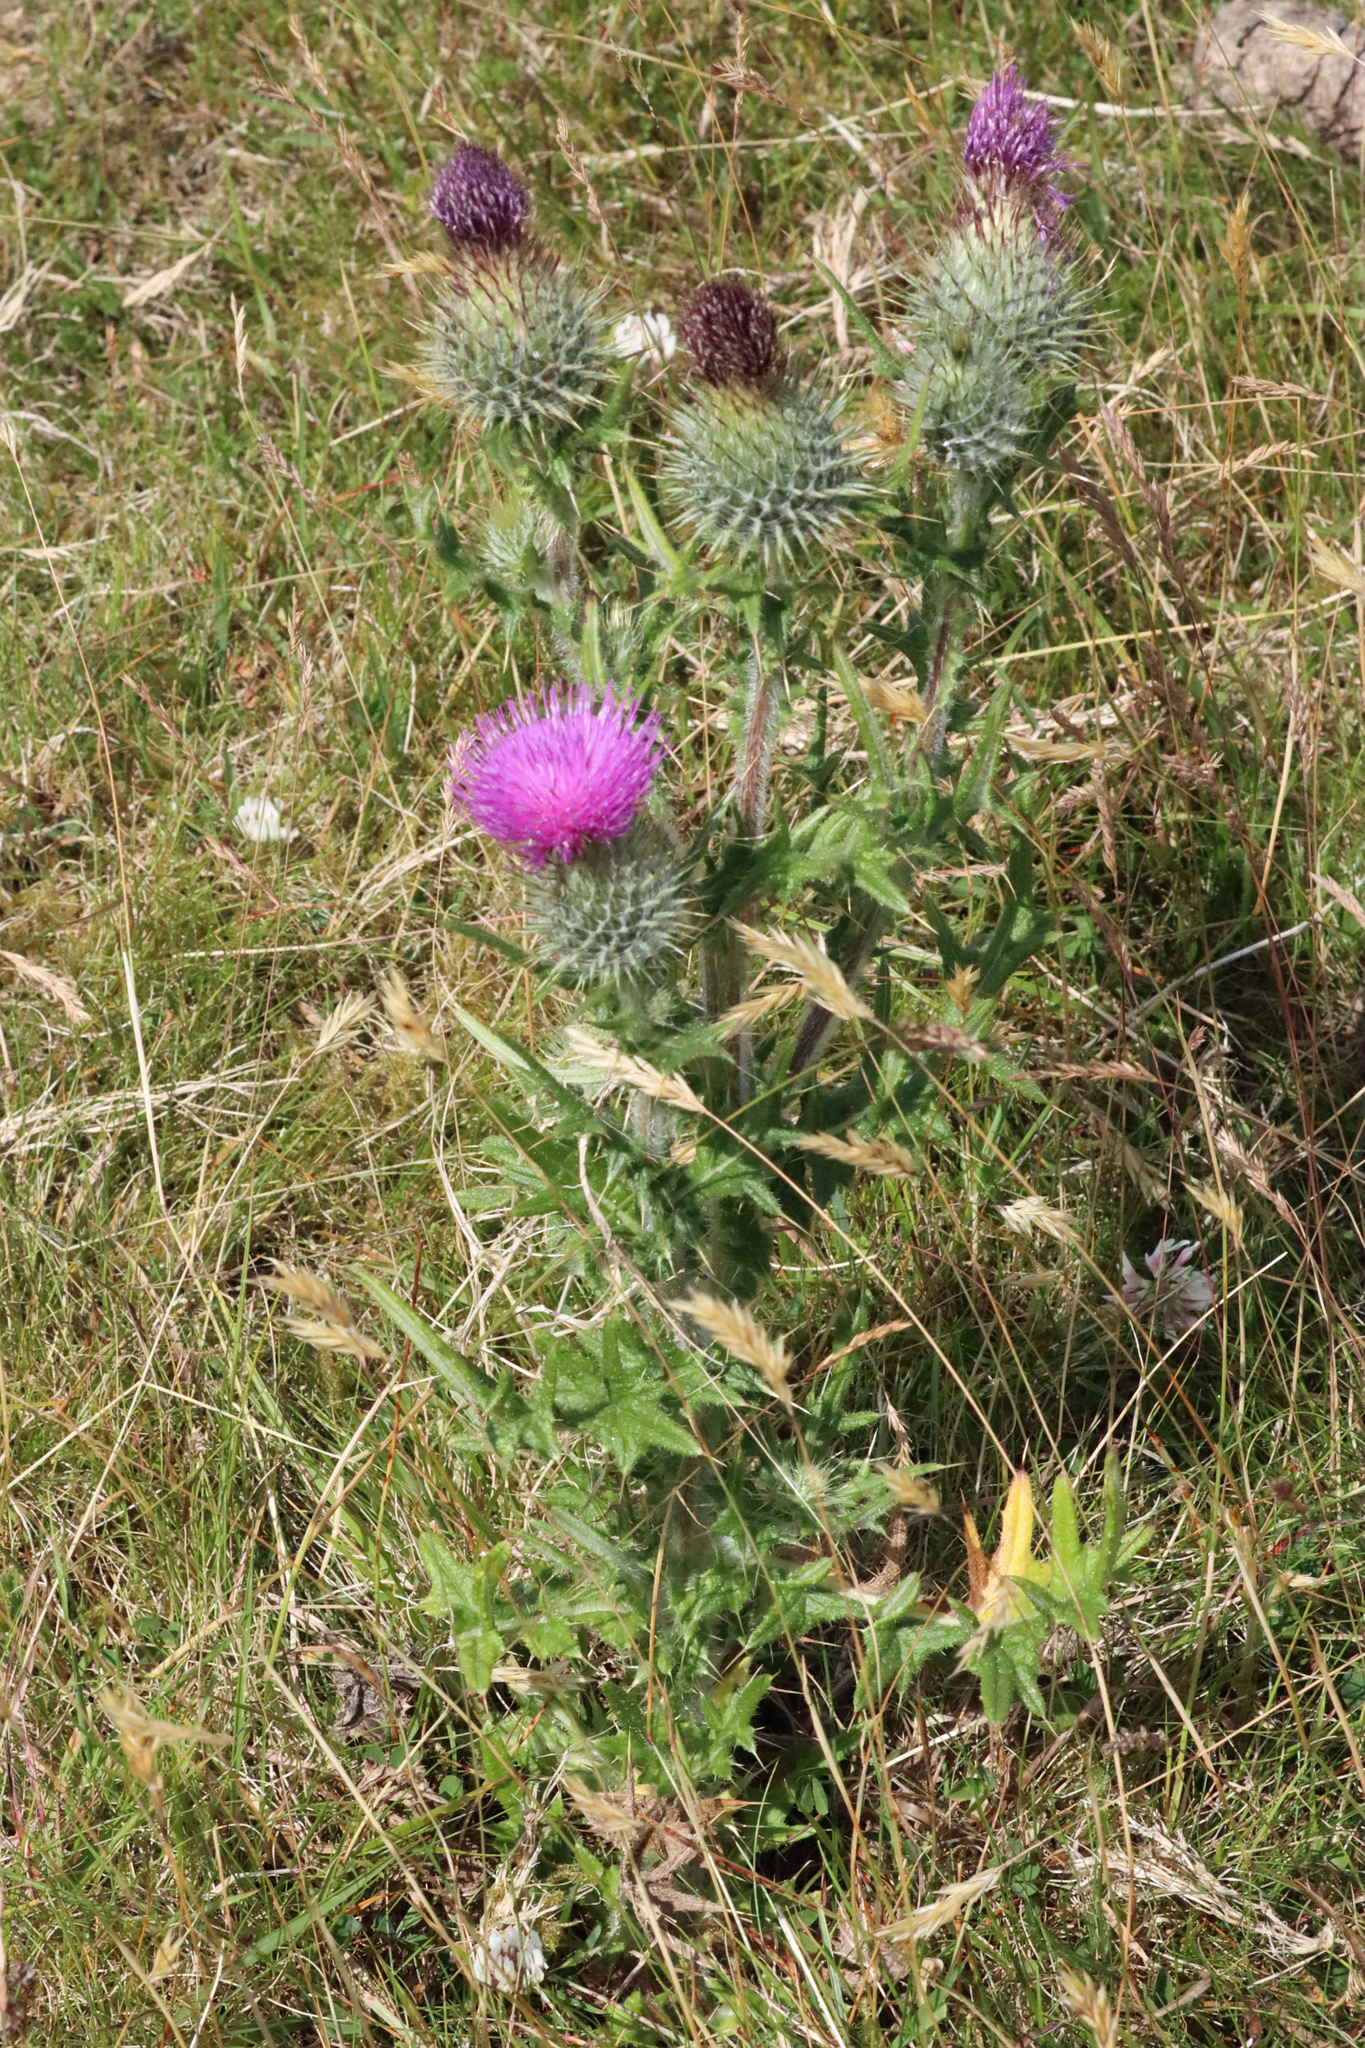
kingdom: Plantae
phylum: Tracheophyta
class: Magnoliopsida
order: Asterales
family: Asteraceae
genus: Cirsium
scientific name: Cirsium vulgare
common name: Bull thistle
